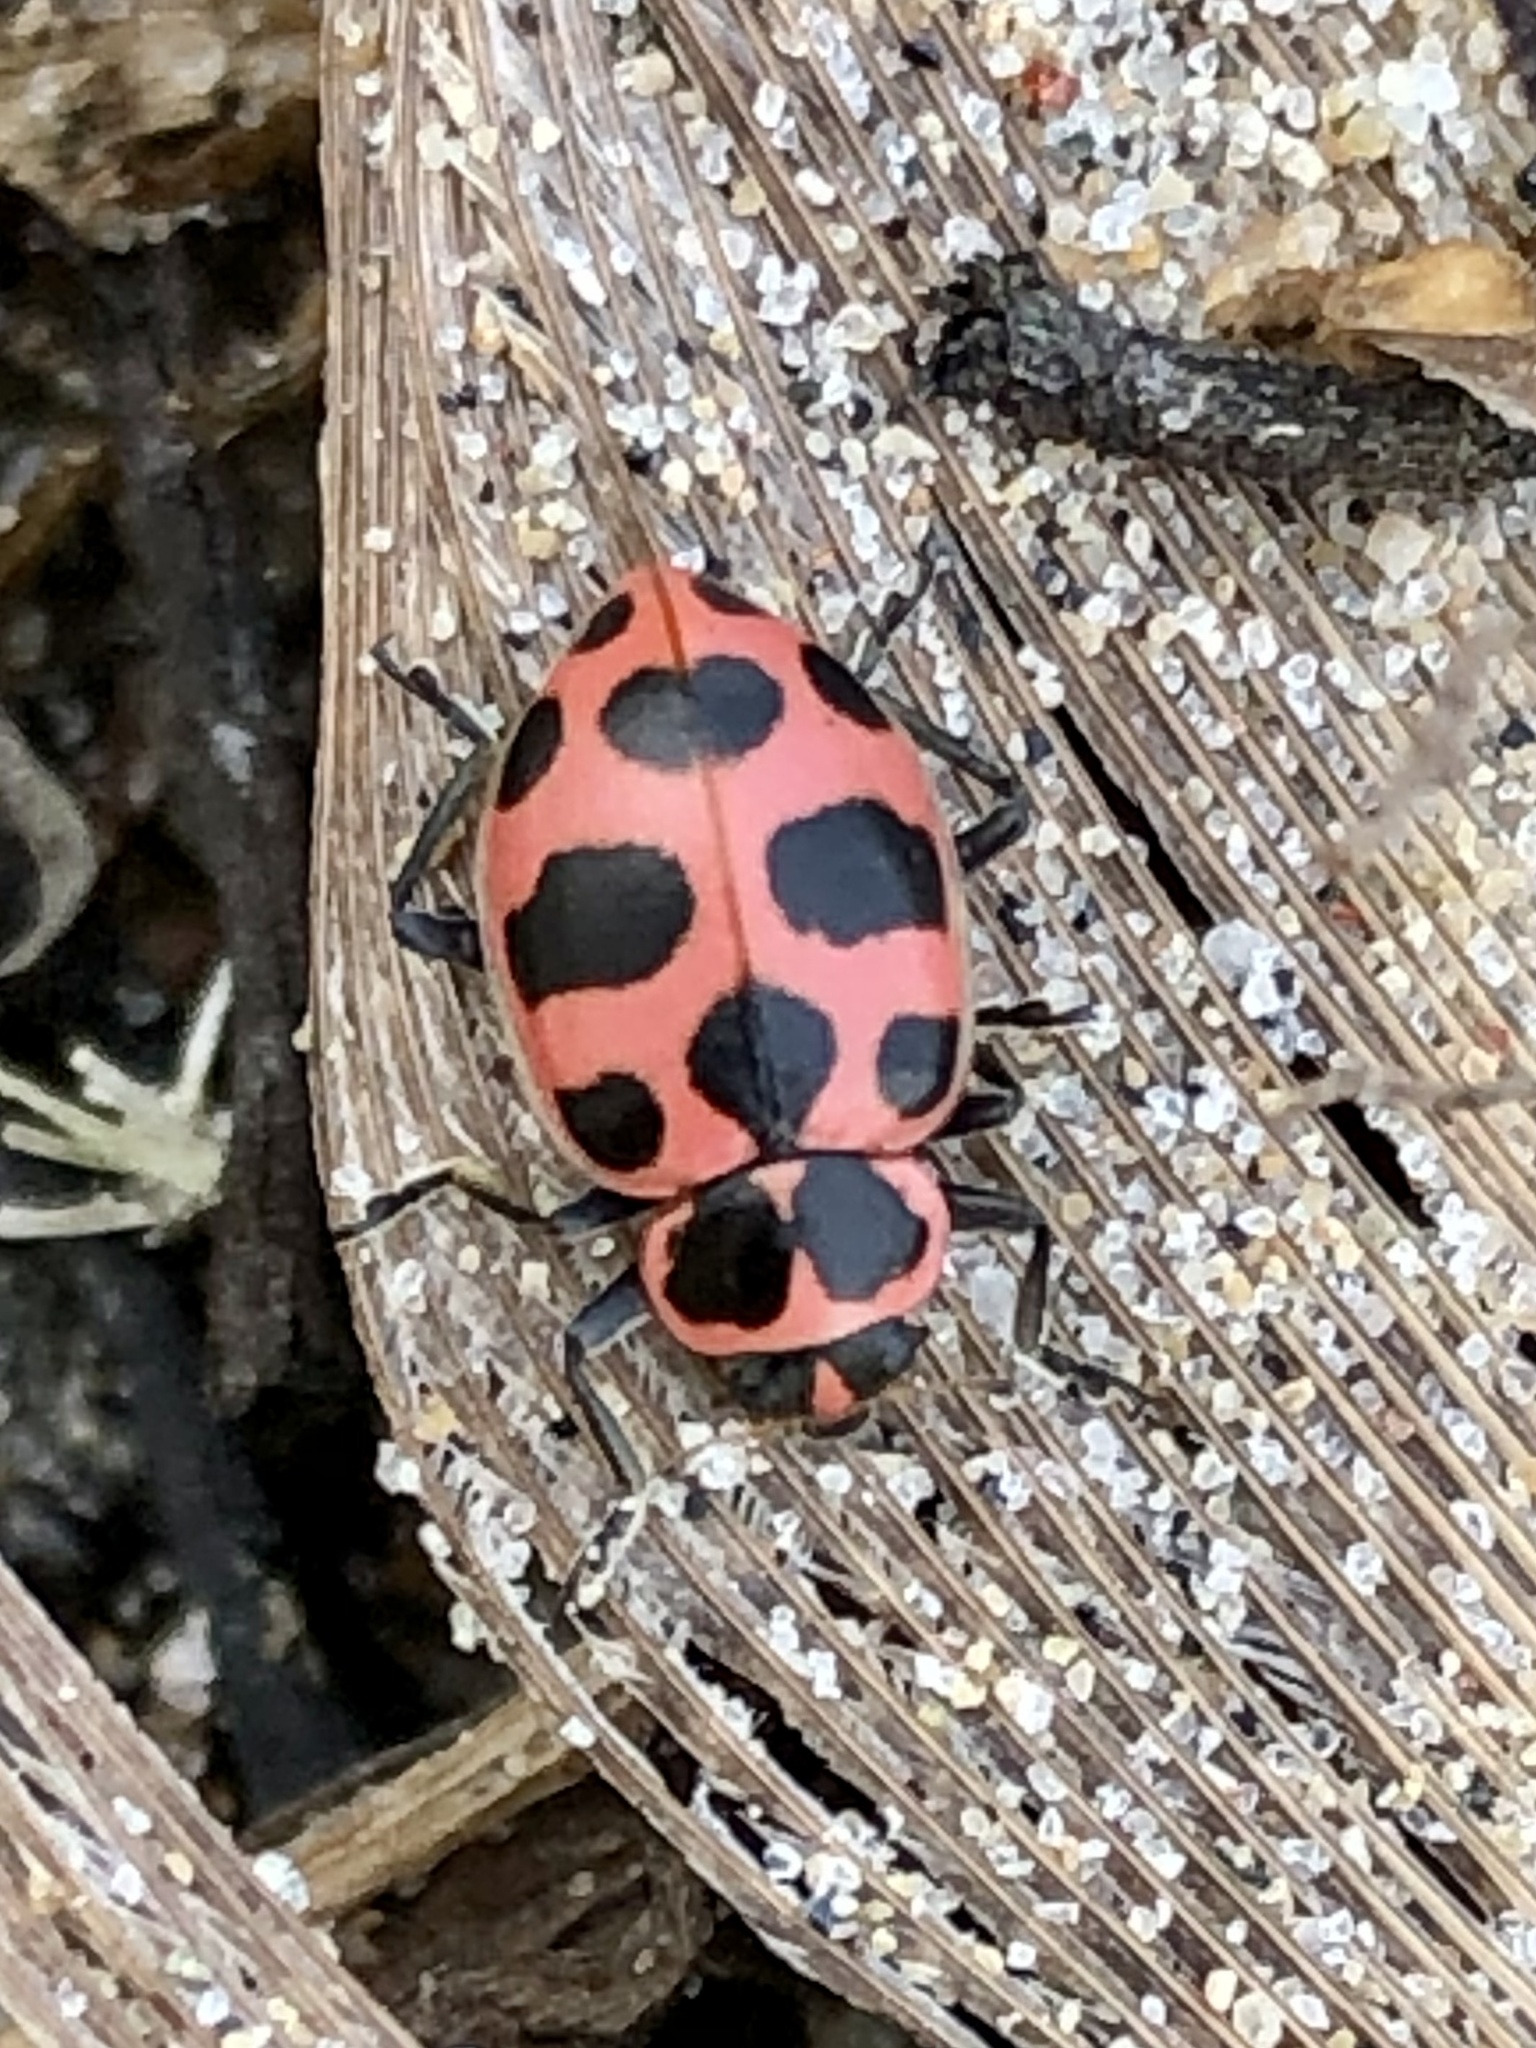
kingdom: Animalia
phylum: Arthropoda
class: Insecta
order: Coleoptera
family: Coccinellidae
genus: Coleomegilla
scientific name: Coleomegilla maculata
